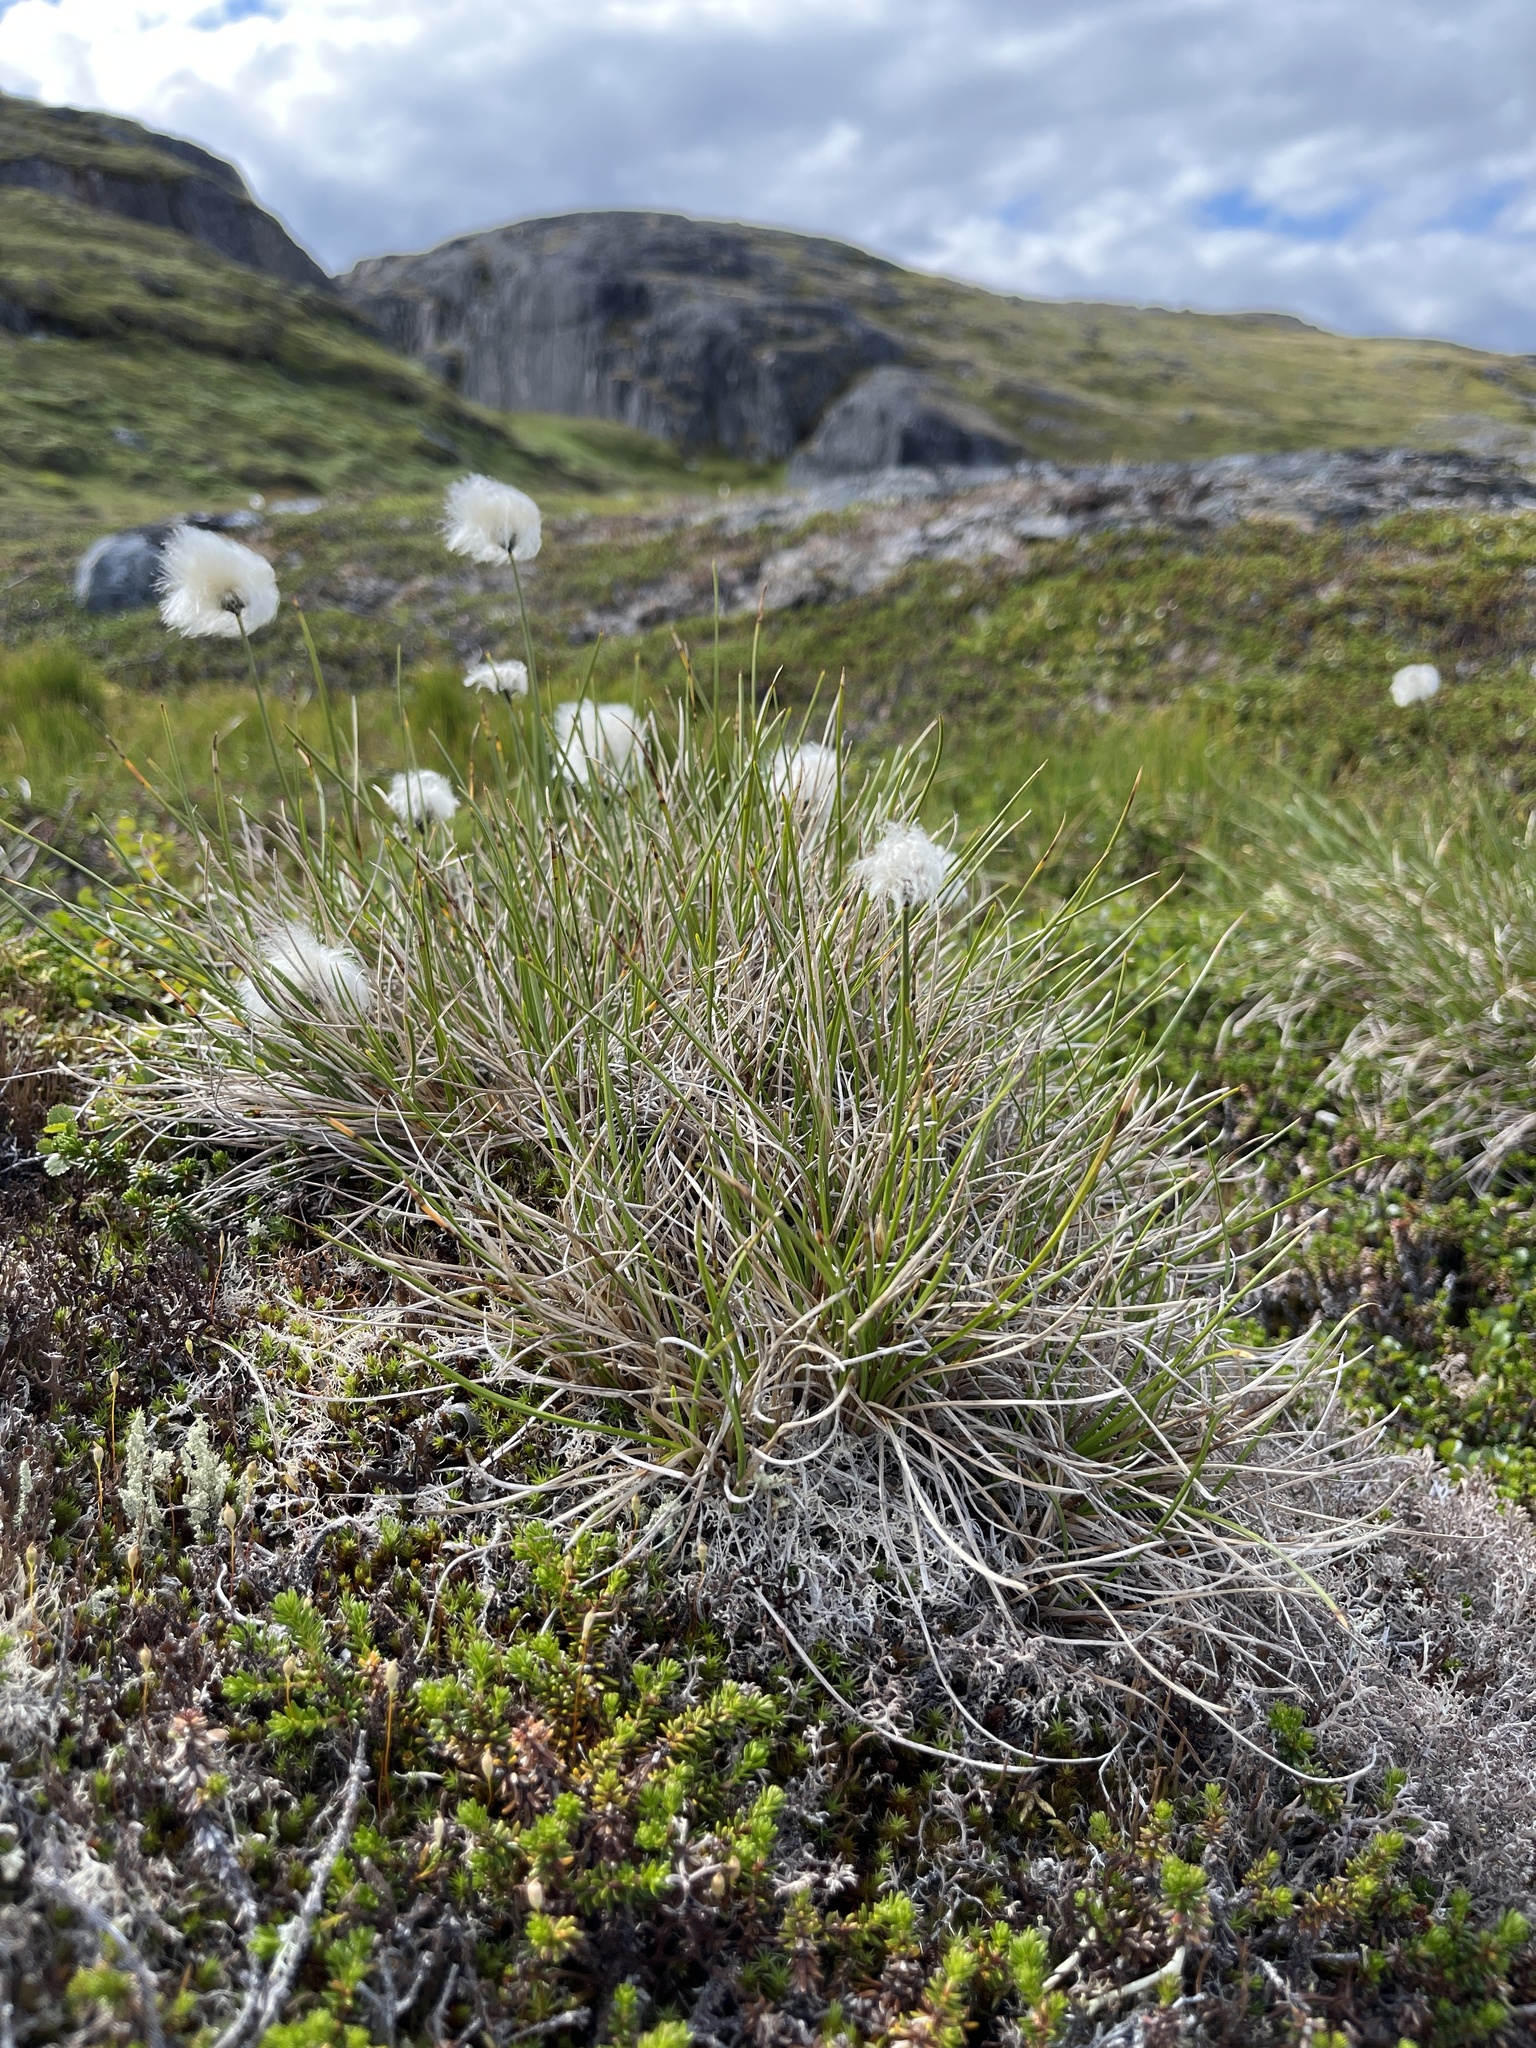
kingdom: Plantae
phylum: Tracheophyta
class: Liliopsida
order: Poales
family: Cyperaceae
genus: Eriophorum
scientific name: Eriophorum vaginatum
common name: Hare's-tail cottongrass
